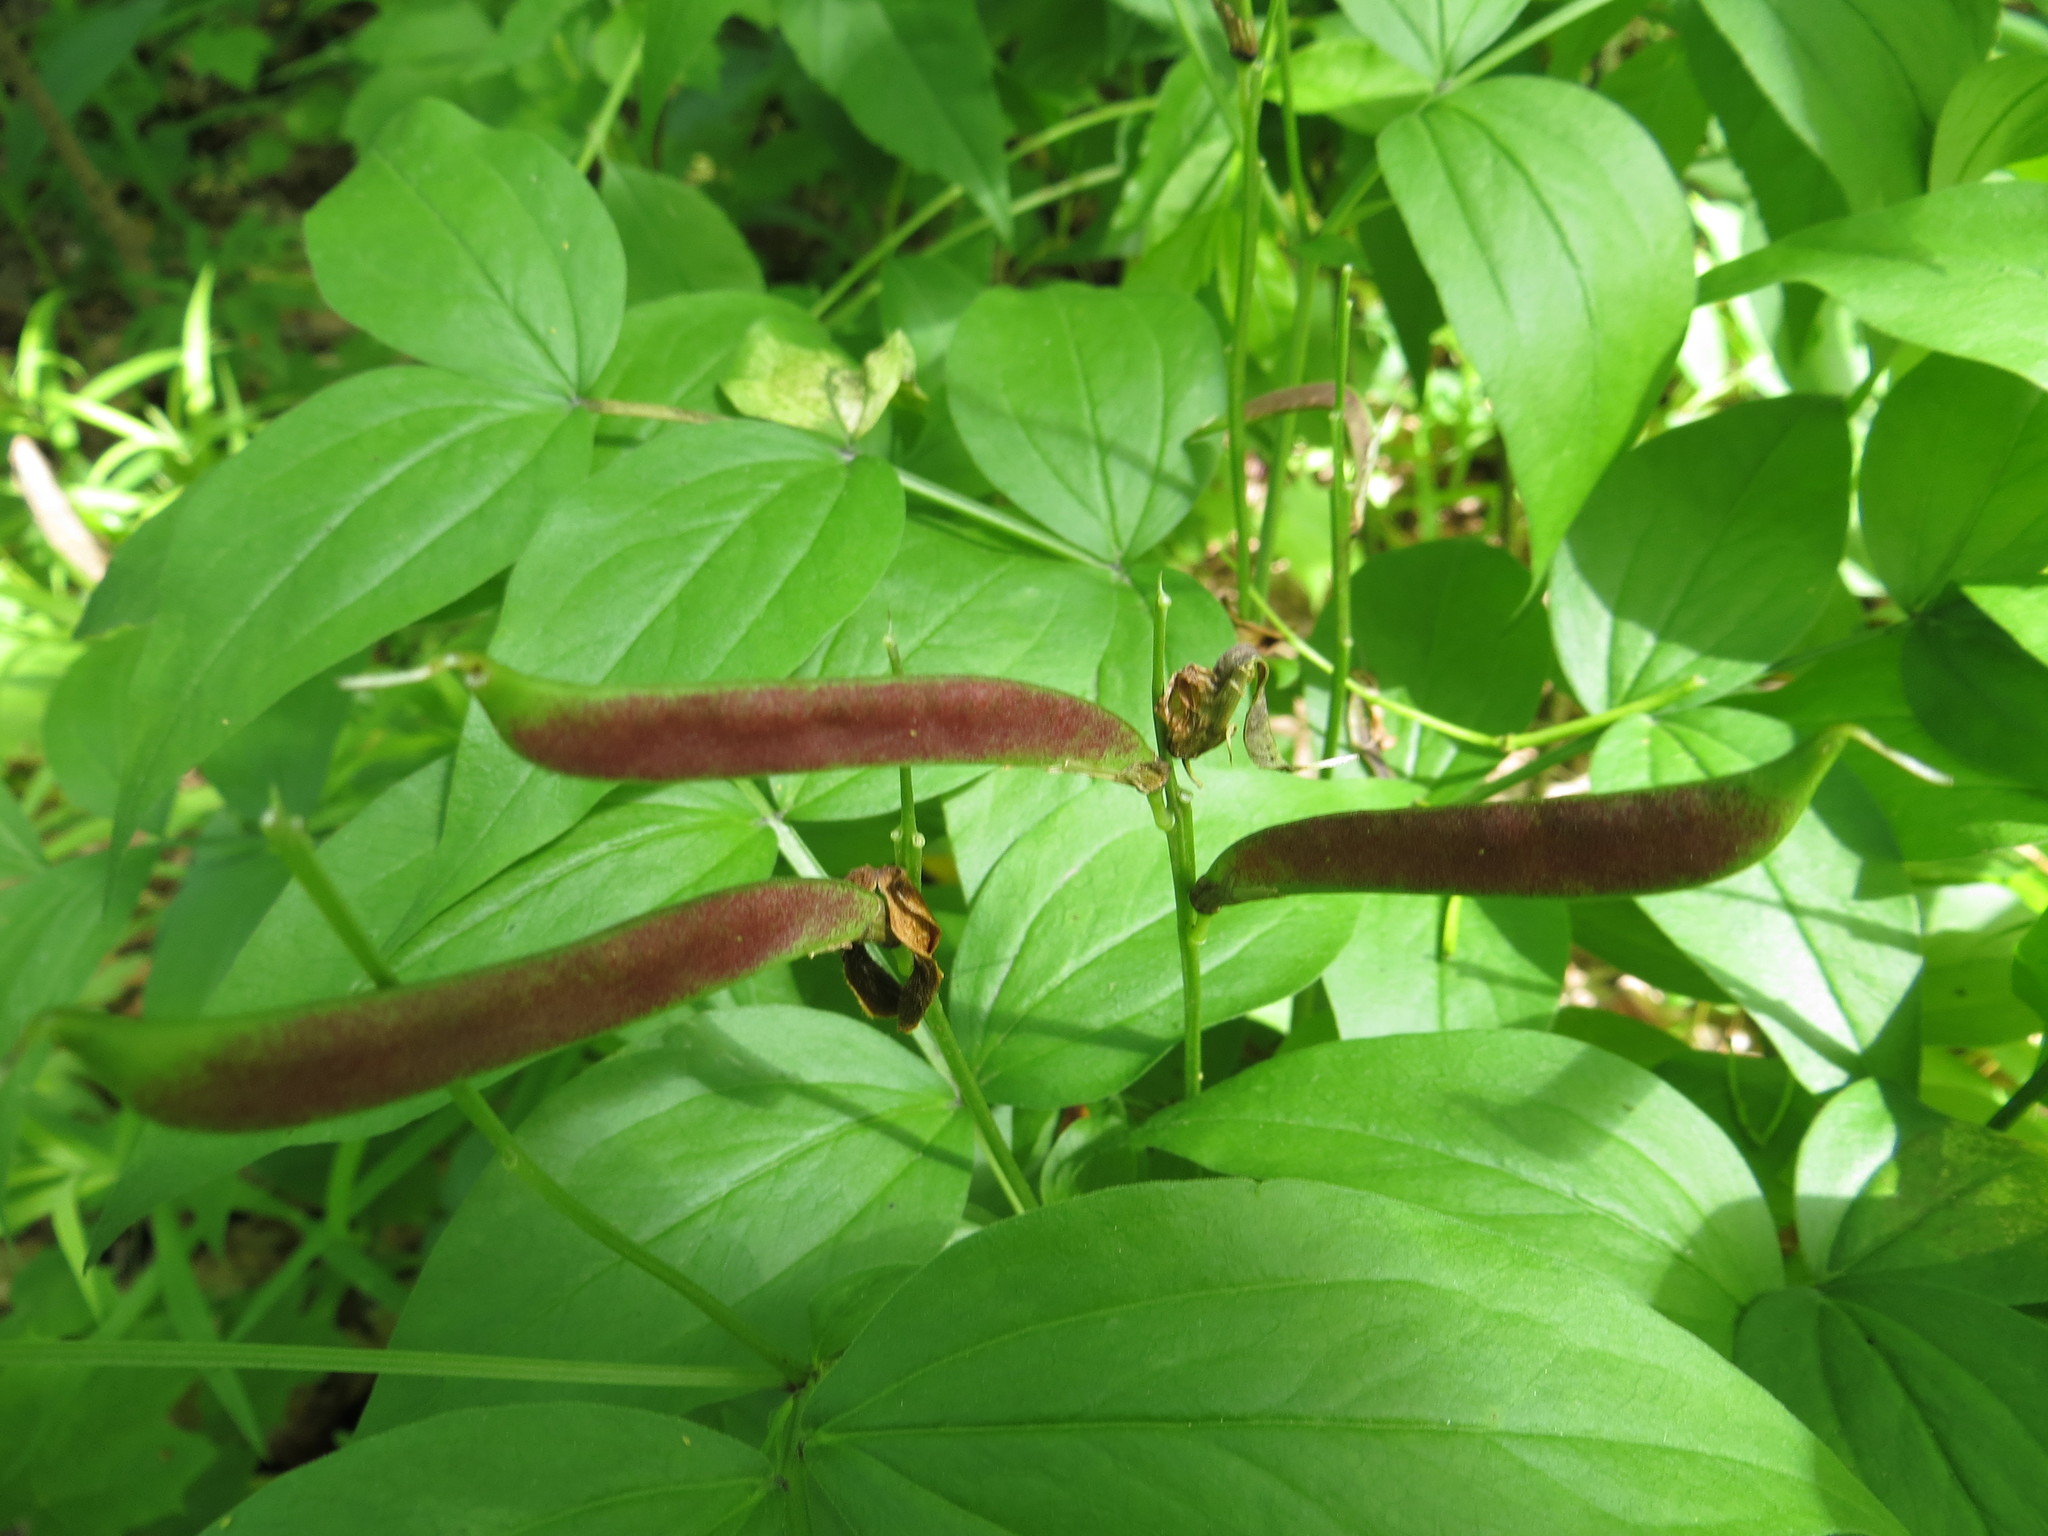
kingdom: Plantae
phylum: Tracheophyta
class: Magnoliopsida
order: Fabales
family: Fabaceae
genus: Lathyrus
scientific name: Lathyrus vernus
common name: Spring pea
